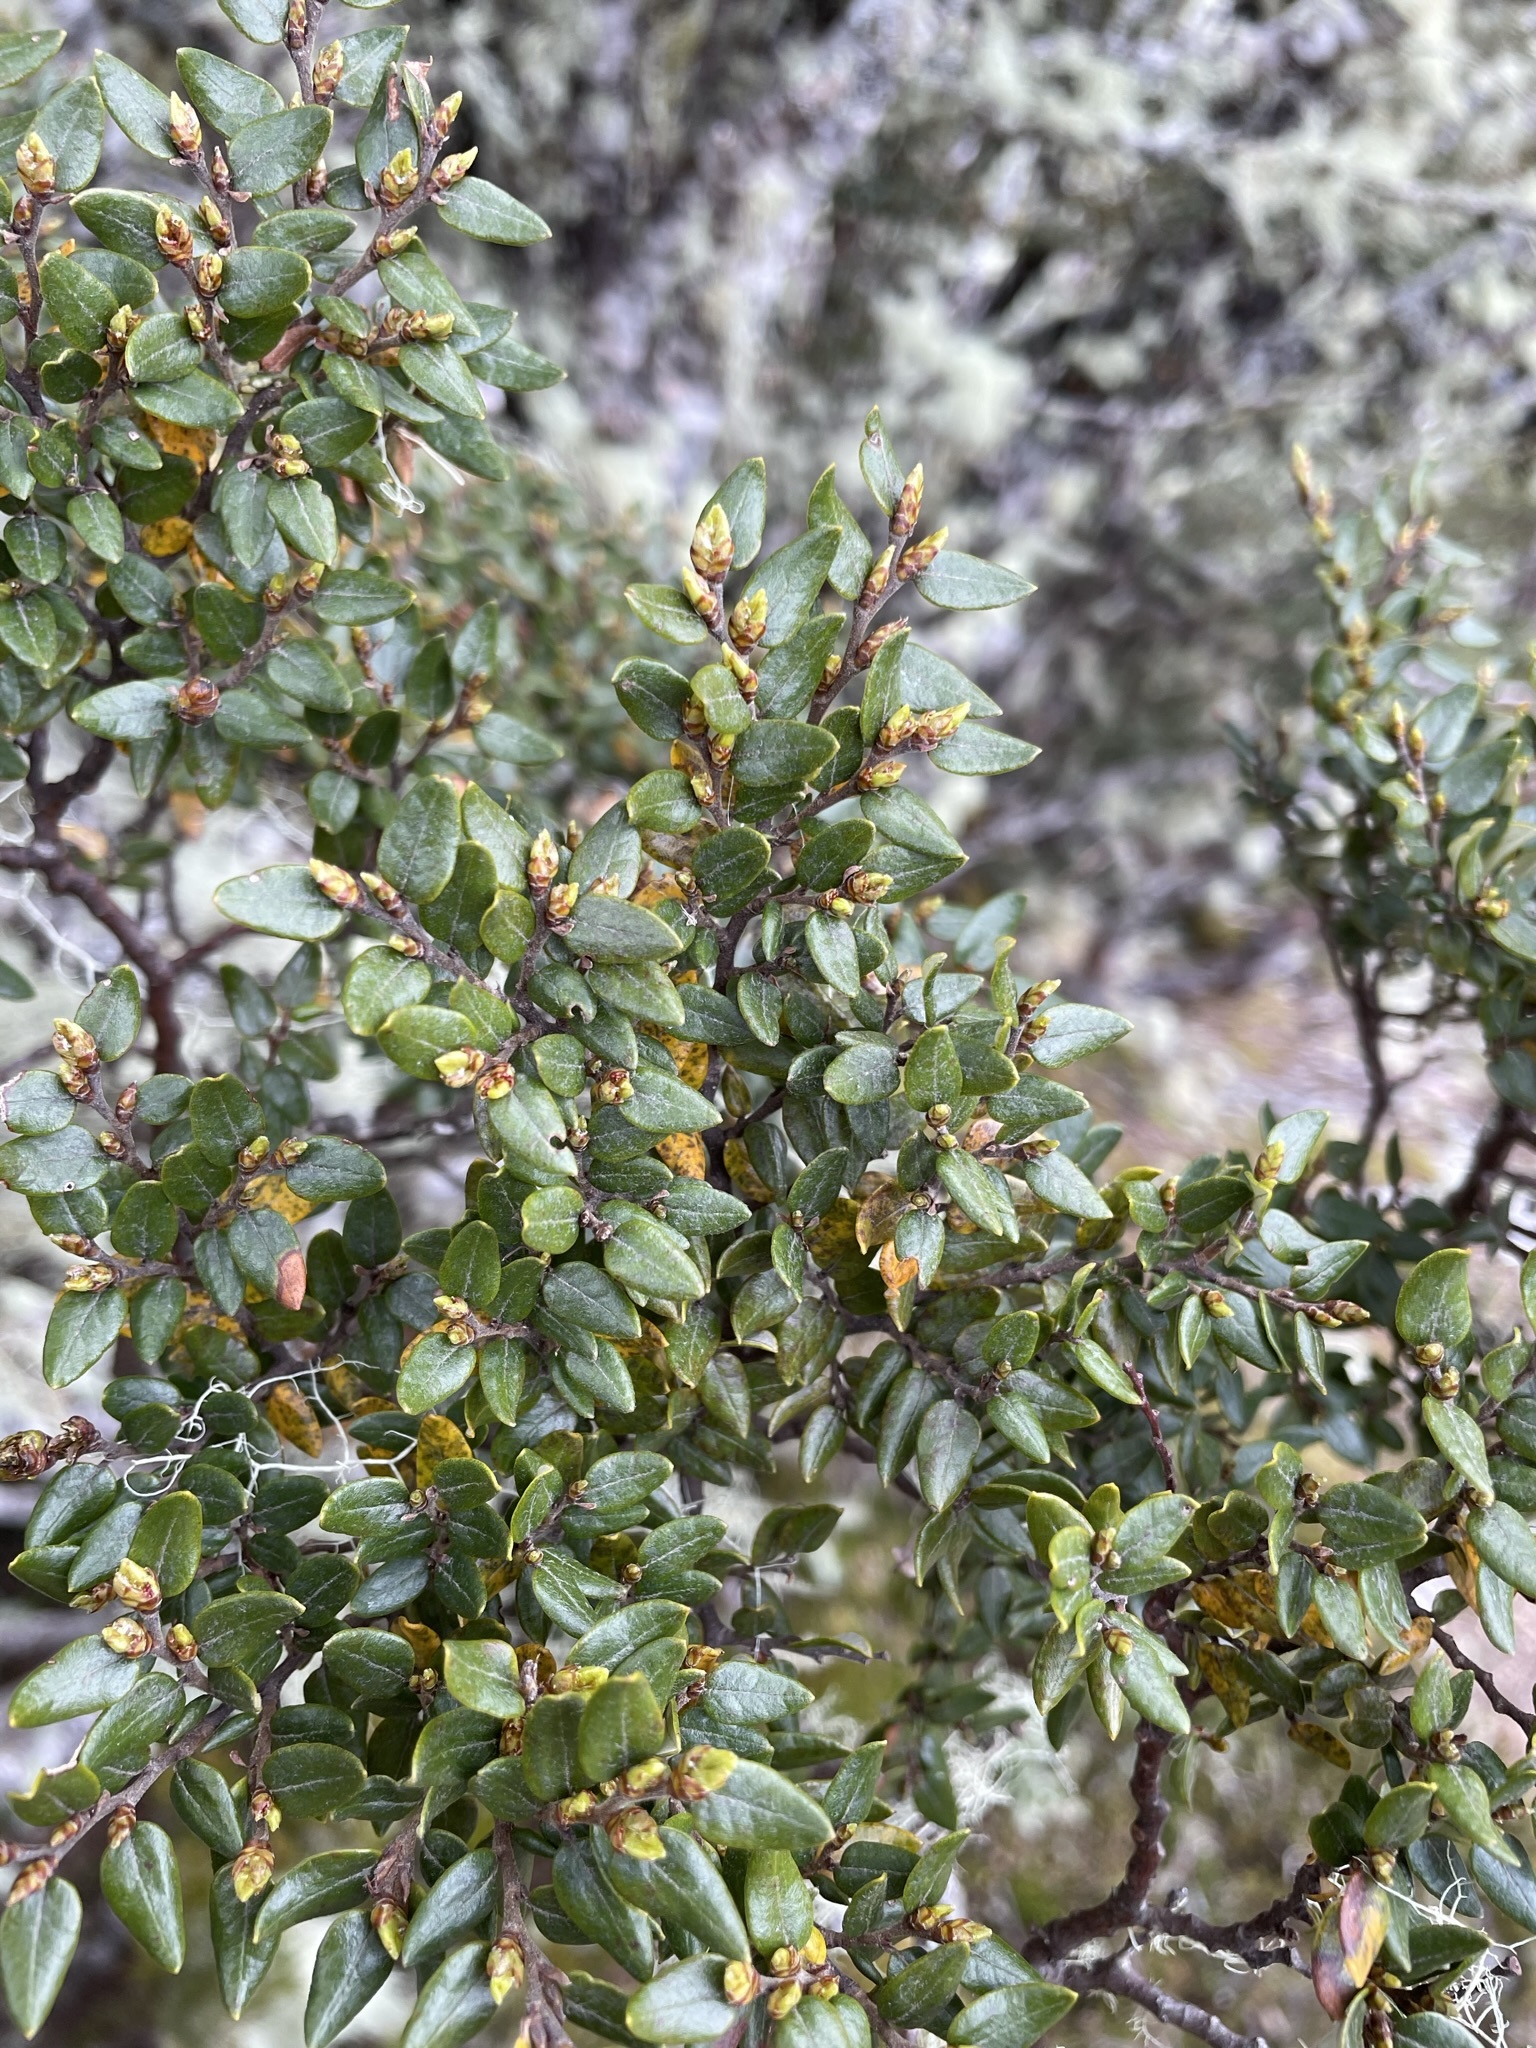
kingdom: Plantae
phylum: Tracheophyta
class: Magnoliopsida
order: Fagales
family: Nothofagaceae
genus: Nothofagus
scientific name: Nothofagus cliffortioides
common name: Mountain beech
